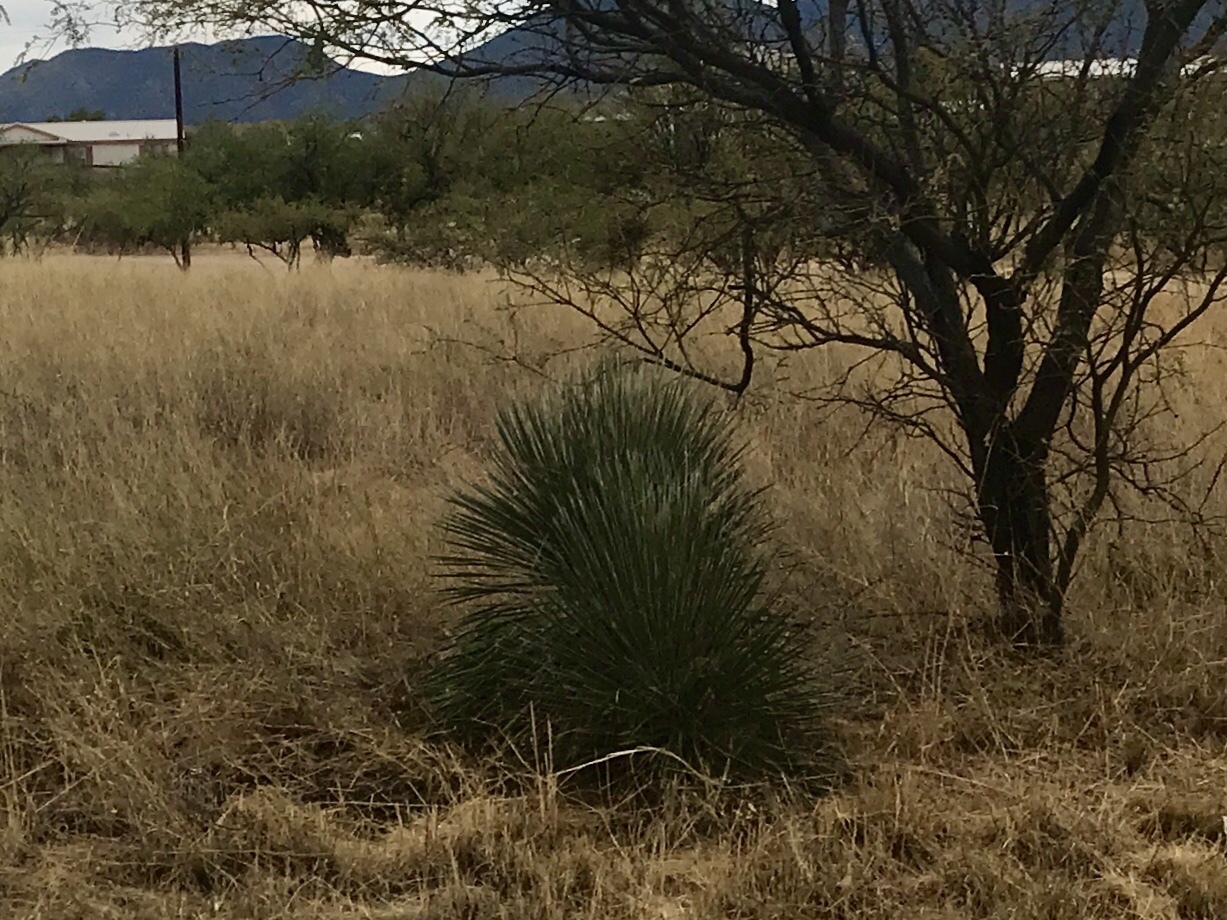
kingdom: Plantae
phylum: Tracheophyta
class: Liliopsida
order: Asparagales
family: Asparagaceae
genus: Yucca
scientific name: Yucca elata
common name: Palmella
